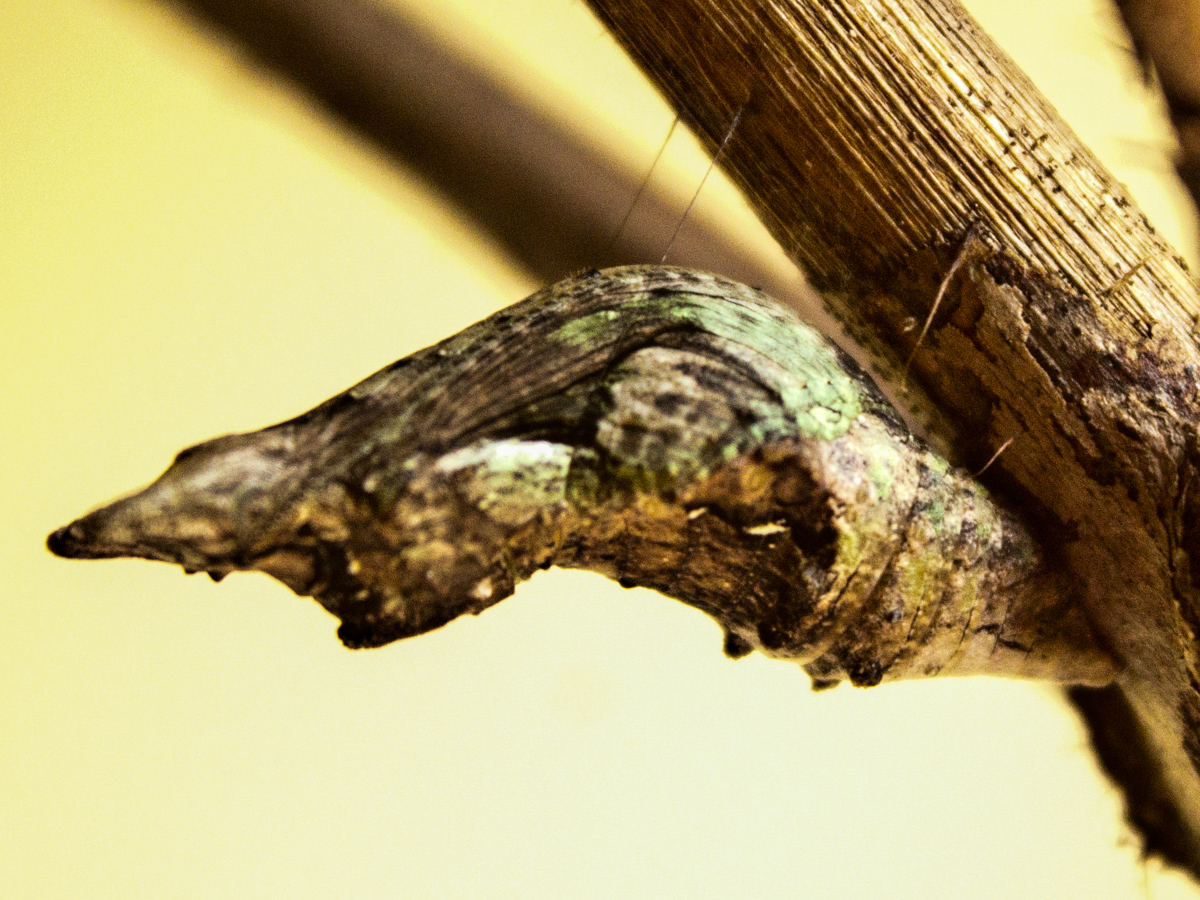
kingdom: Animalia
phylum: Arthropoda
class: Insecta
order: Lepidoptera
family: Papilionidae
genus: Papilio
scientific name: Papilio polytes
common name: Common mormon
